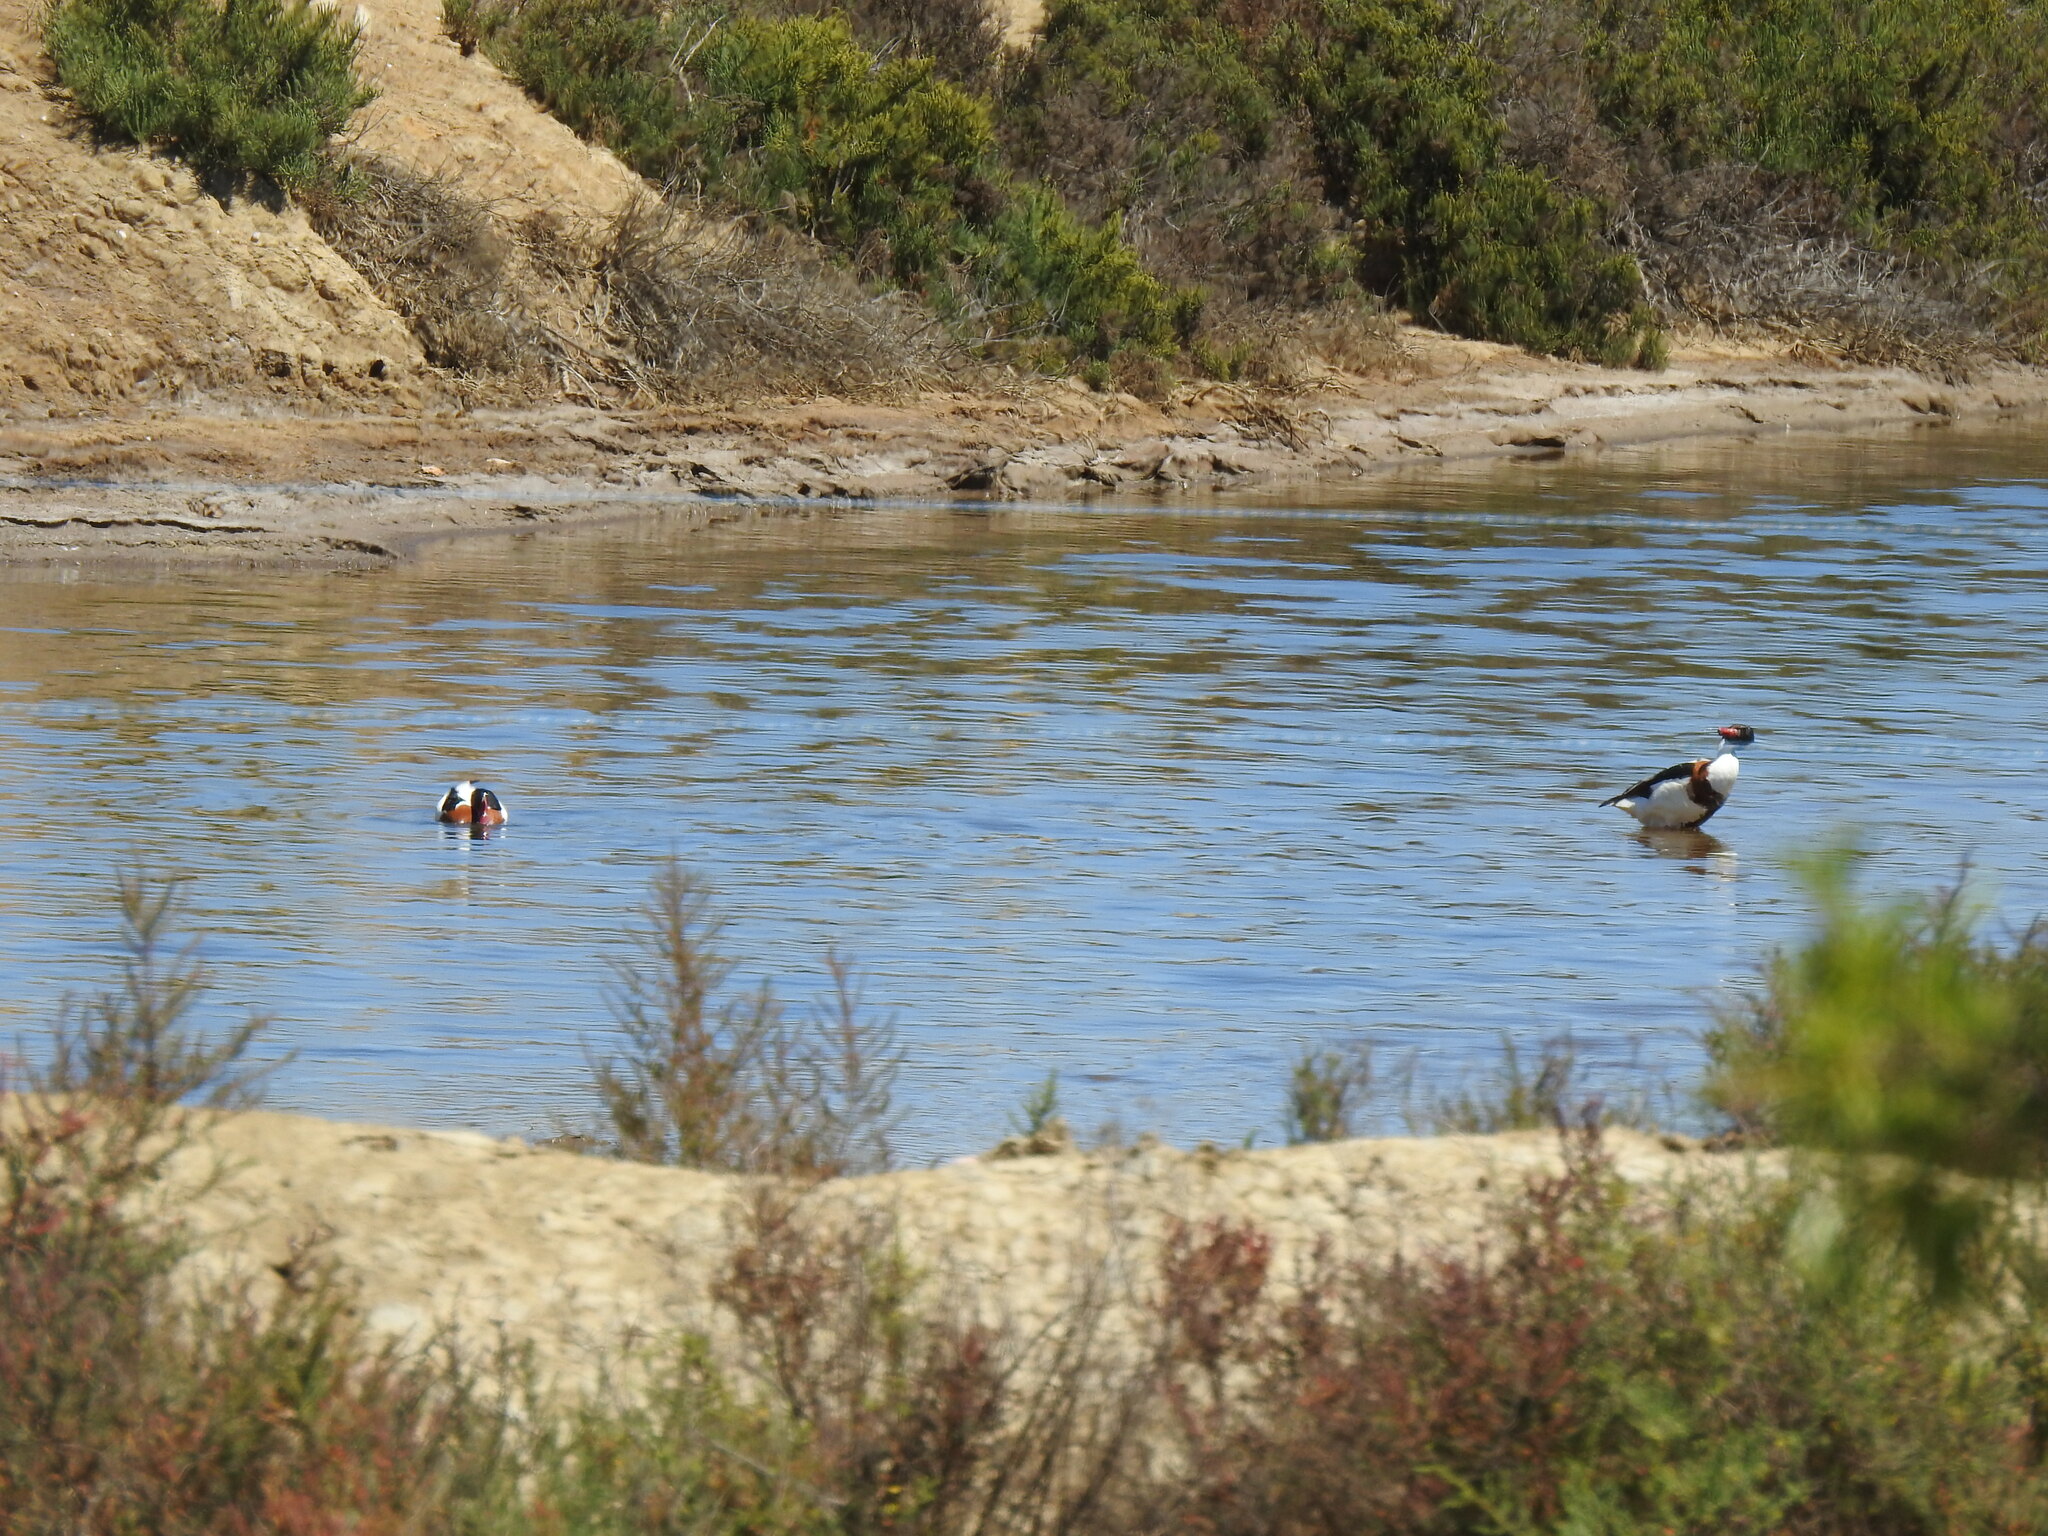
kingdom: Animalia
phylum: Chordata
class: Aves
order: Anseriformes
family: Anatidae
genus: Tadorna
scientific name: Tadorna tadorna
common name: Common shelduck
